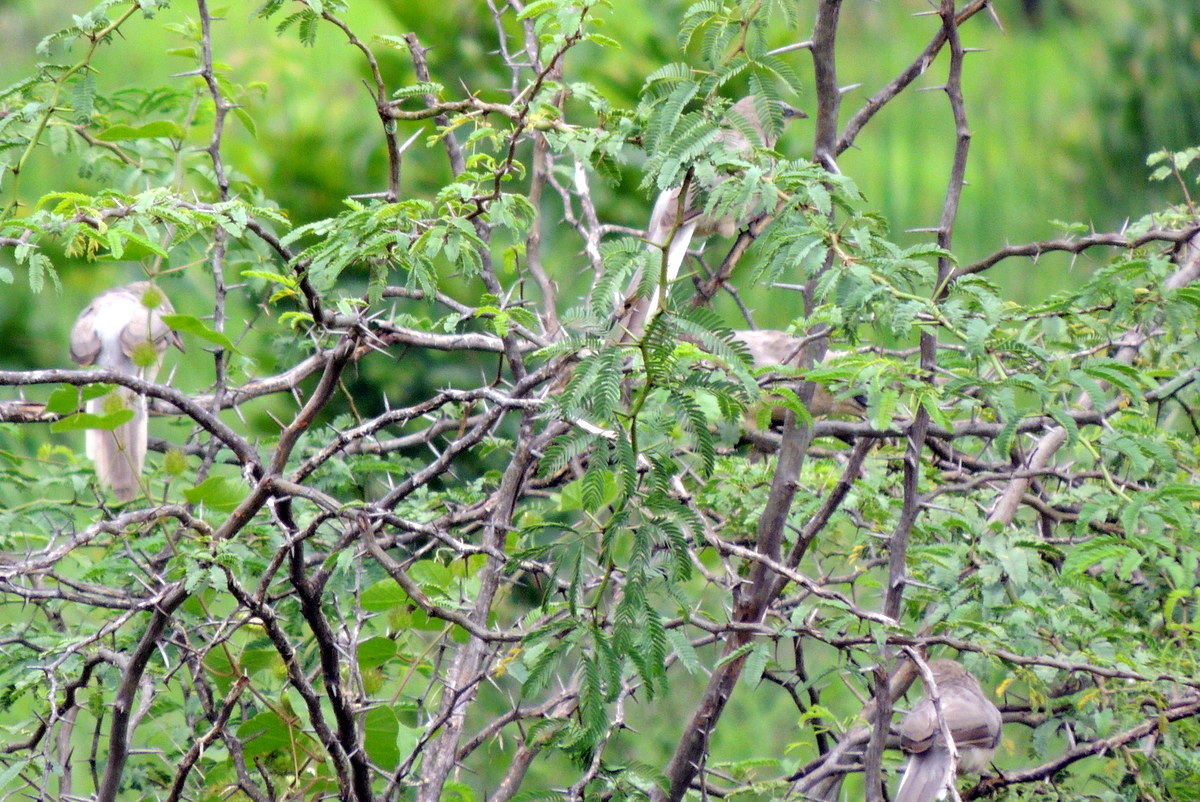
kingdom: Animalia
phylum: Chordata
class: Aves
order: Passeriformes
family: Leiothrichidae
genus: Turdoides
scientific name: Turdoides malcolmi
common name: Large grey babbler
